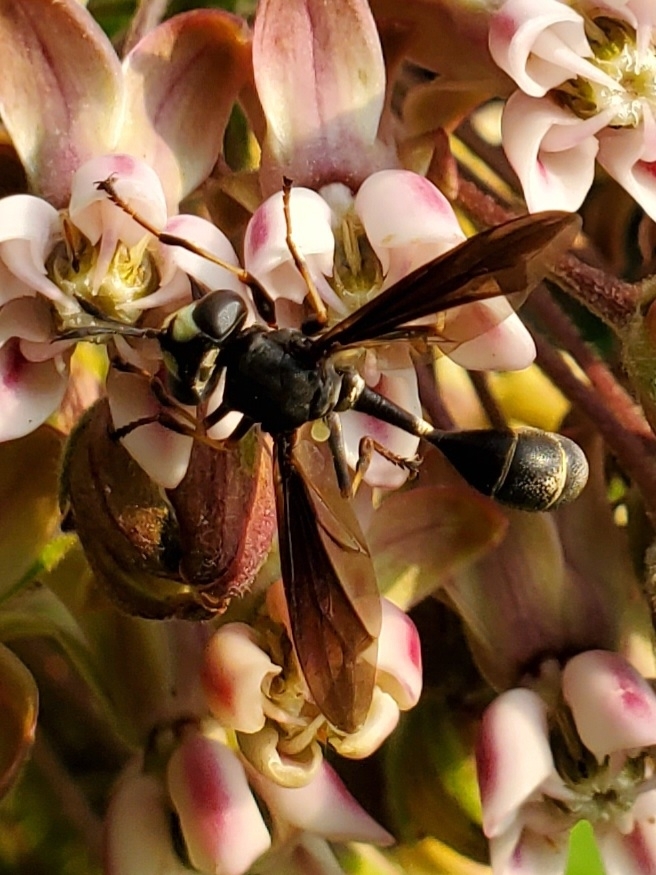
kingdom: Animalia
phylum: Arthropoda
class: Insecta
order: Diptera
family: Conopidae
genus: Physocephala
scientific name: Physocephala tibialis
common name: Common eastern physocephala
